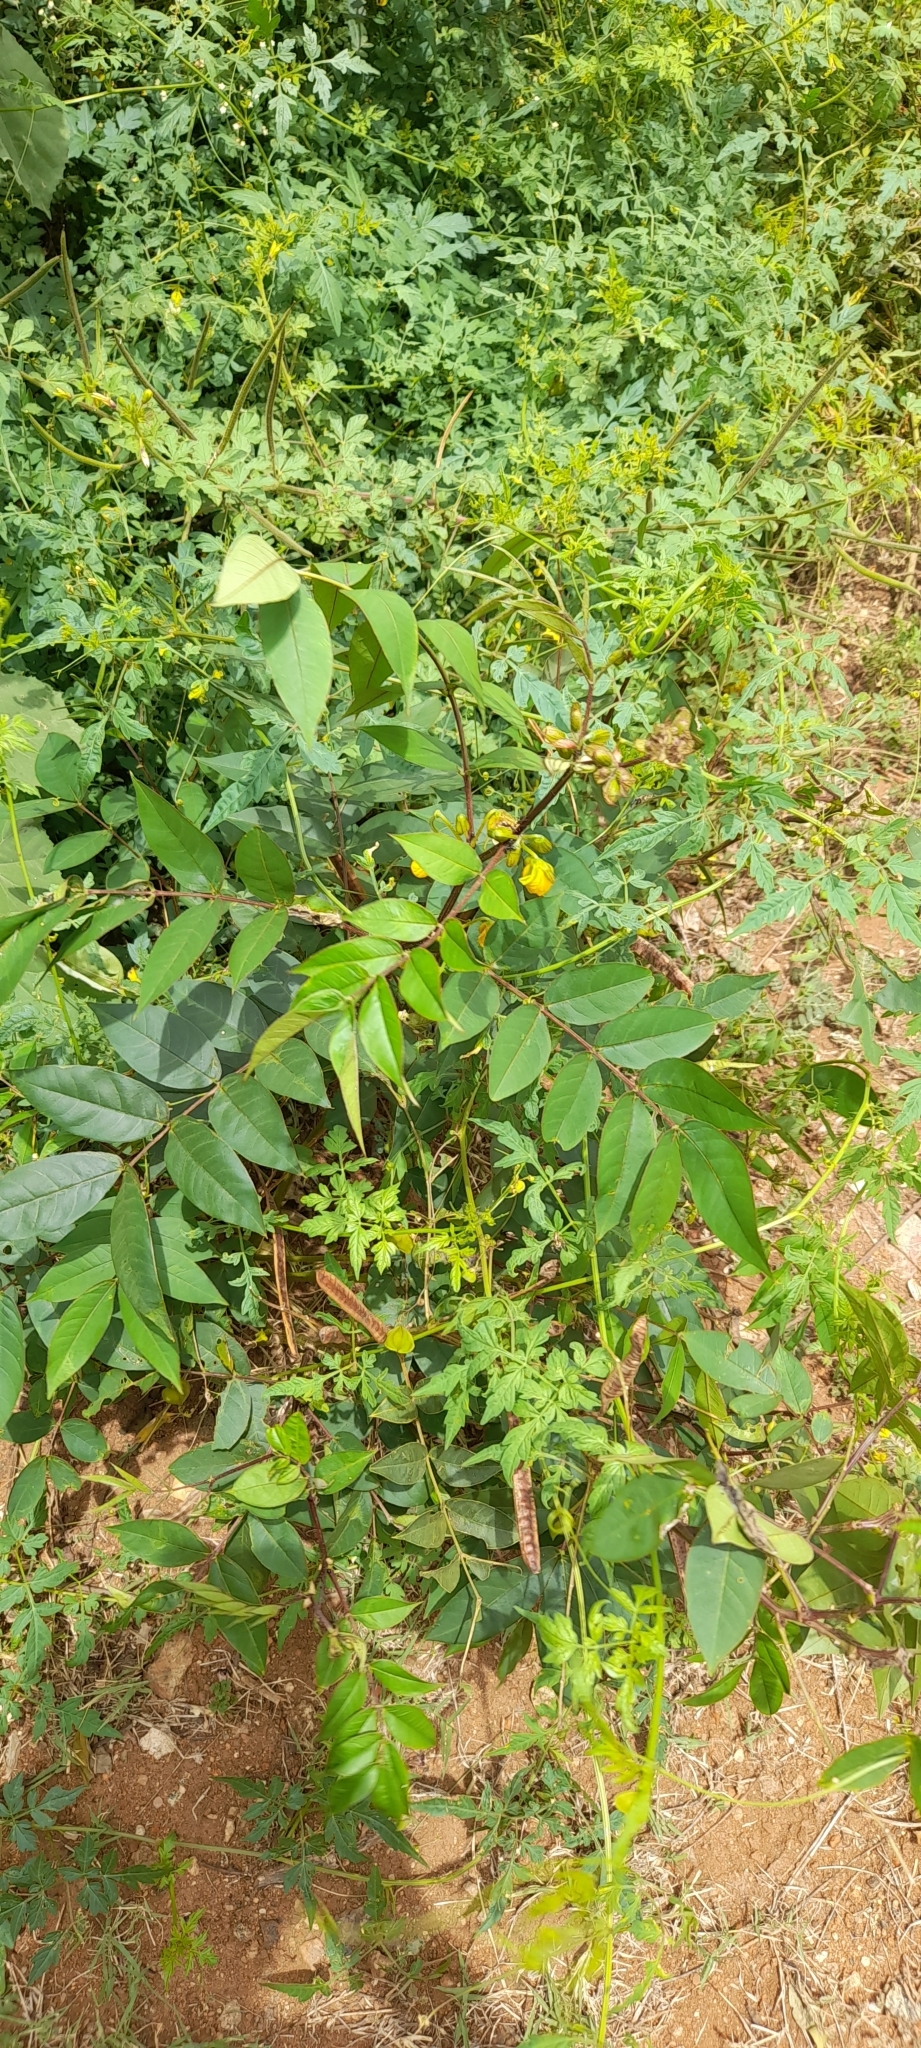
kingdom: Plantae
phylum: Tracheophyta
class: Magnoliopsida
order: Fabales
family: Fabaceae
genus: Senna
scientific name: Senna occidentalis
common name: Septicweed
